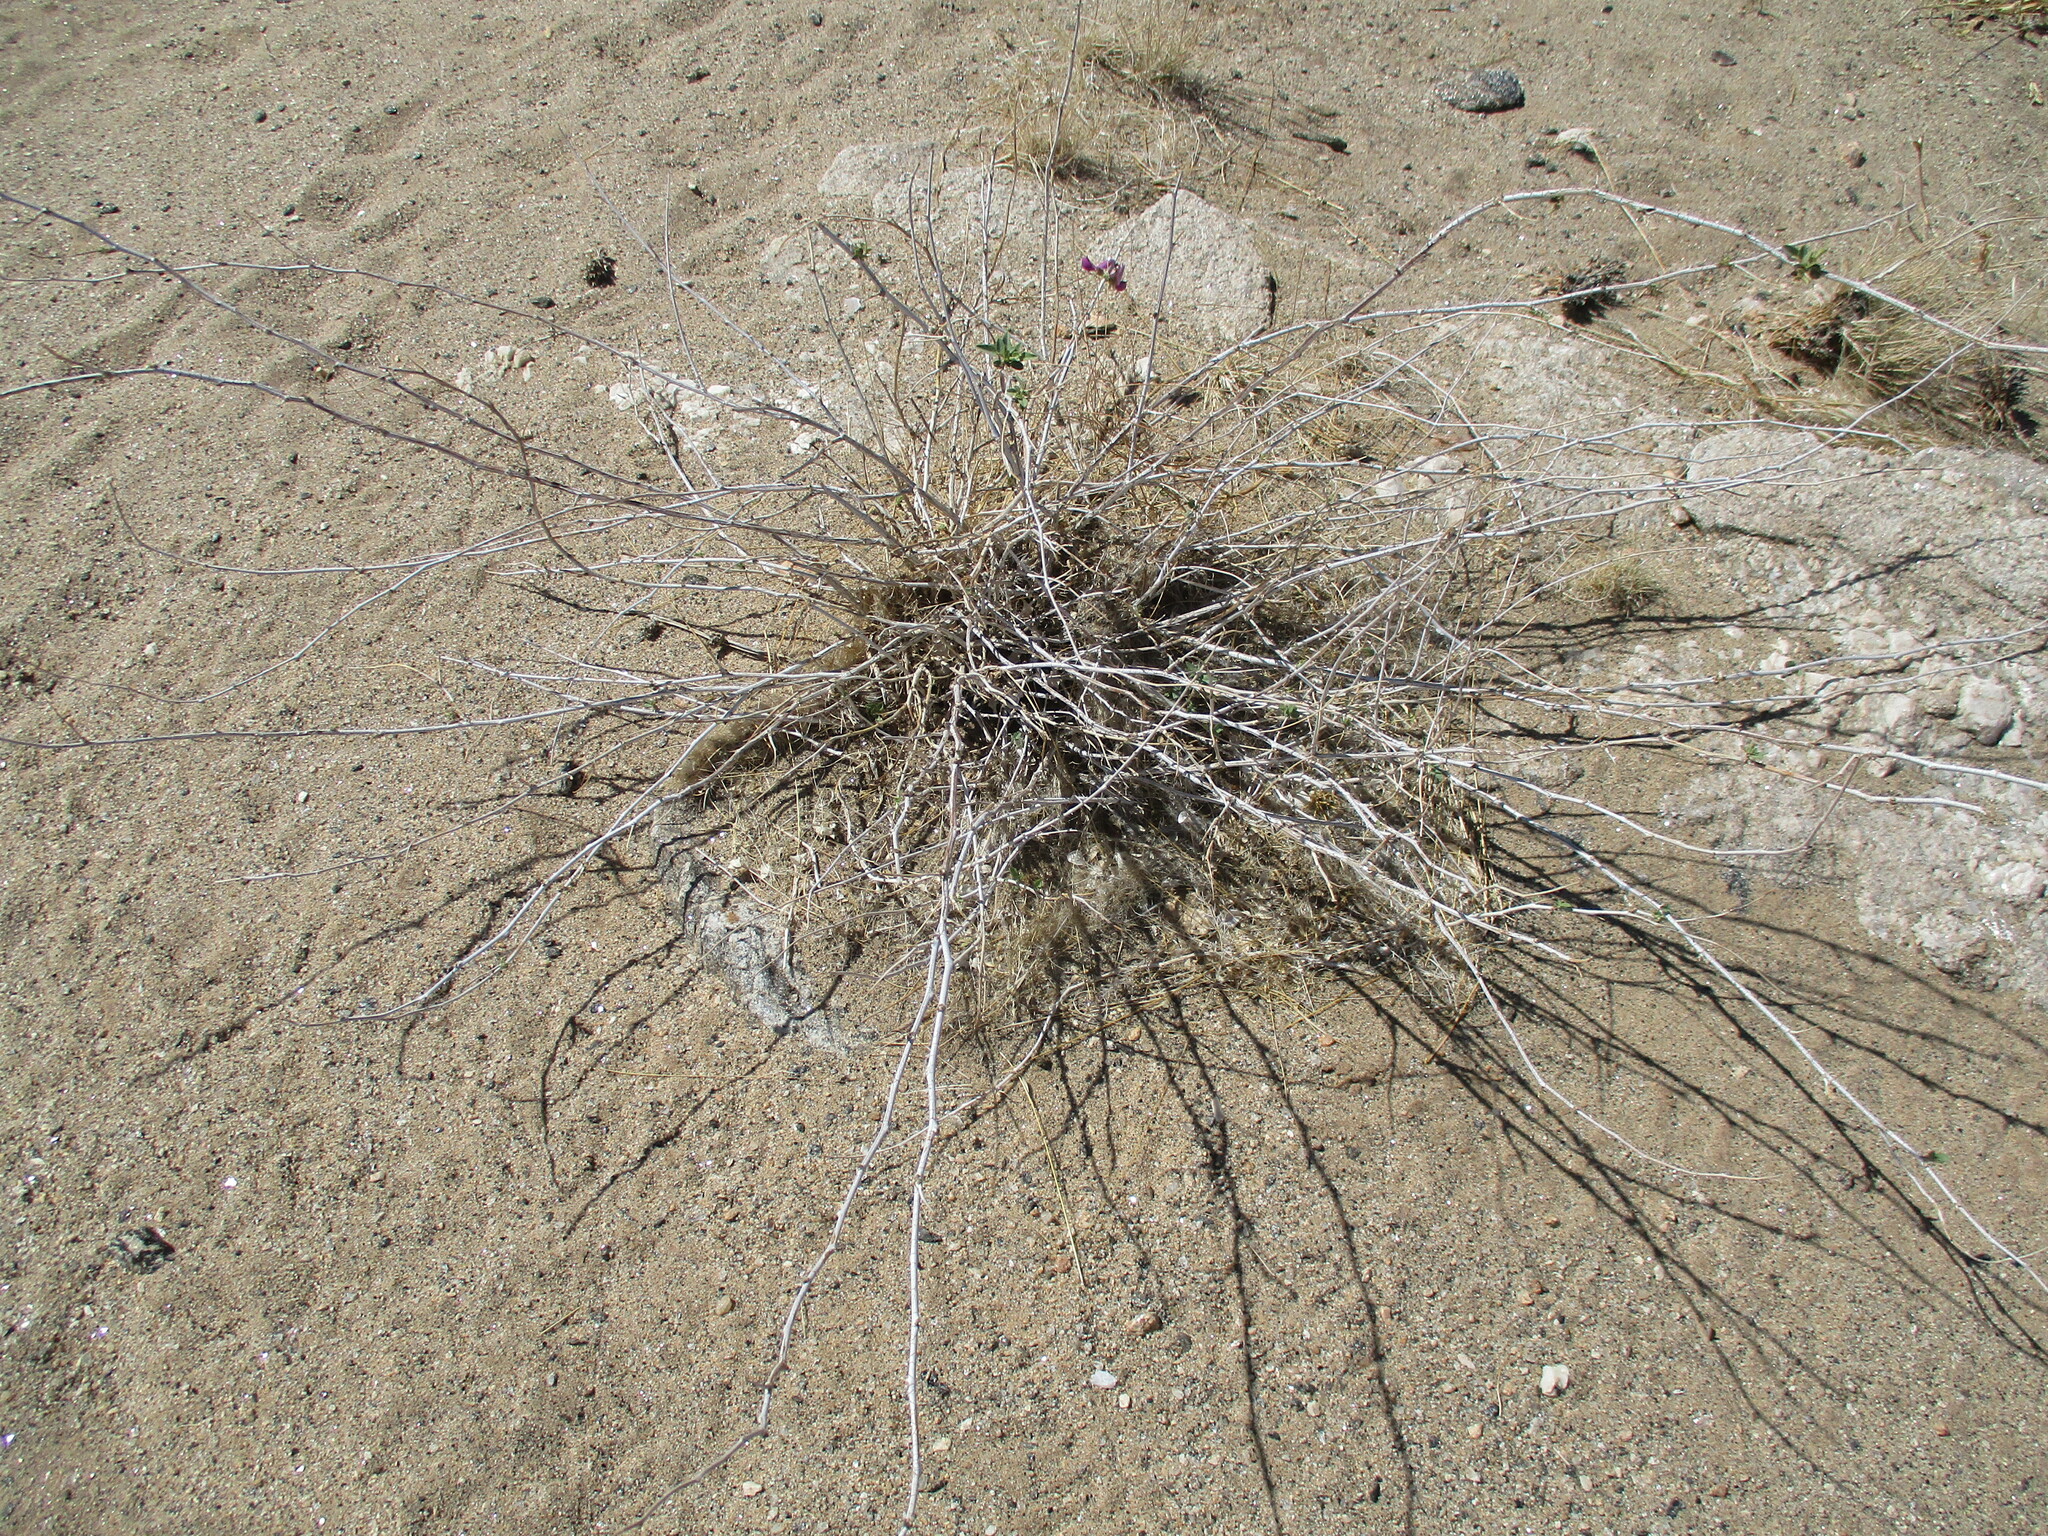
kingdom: Plantae
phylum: Tracheophyta
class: Magnoliopsida
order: Fabales
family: Fabaceae
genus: Otoptera
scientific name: Otoptera burchellii
